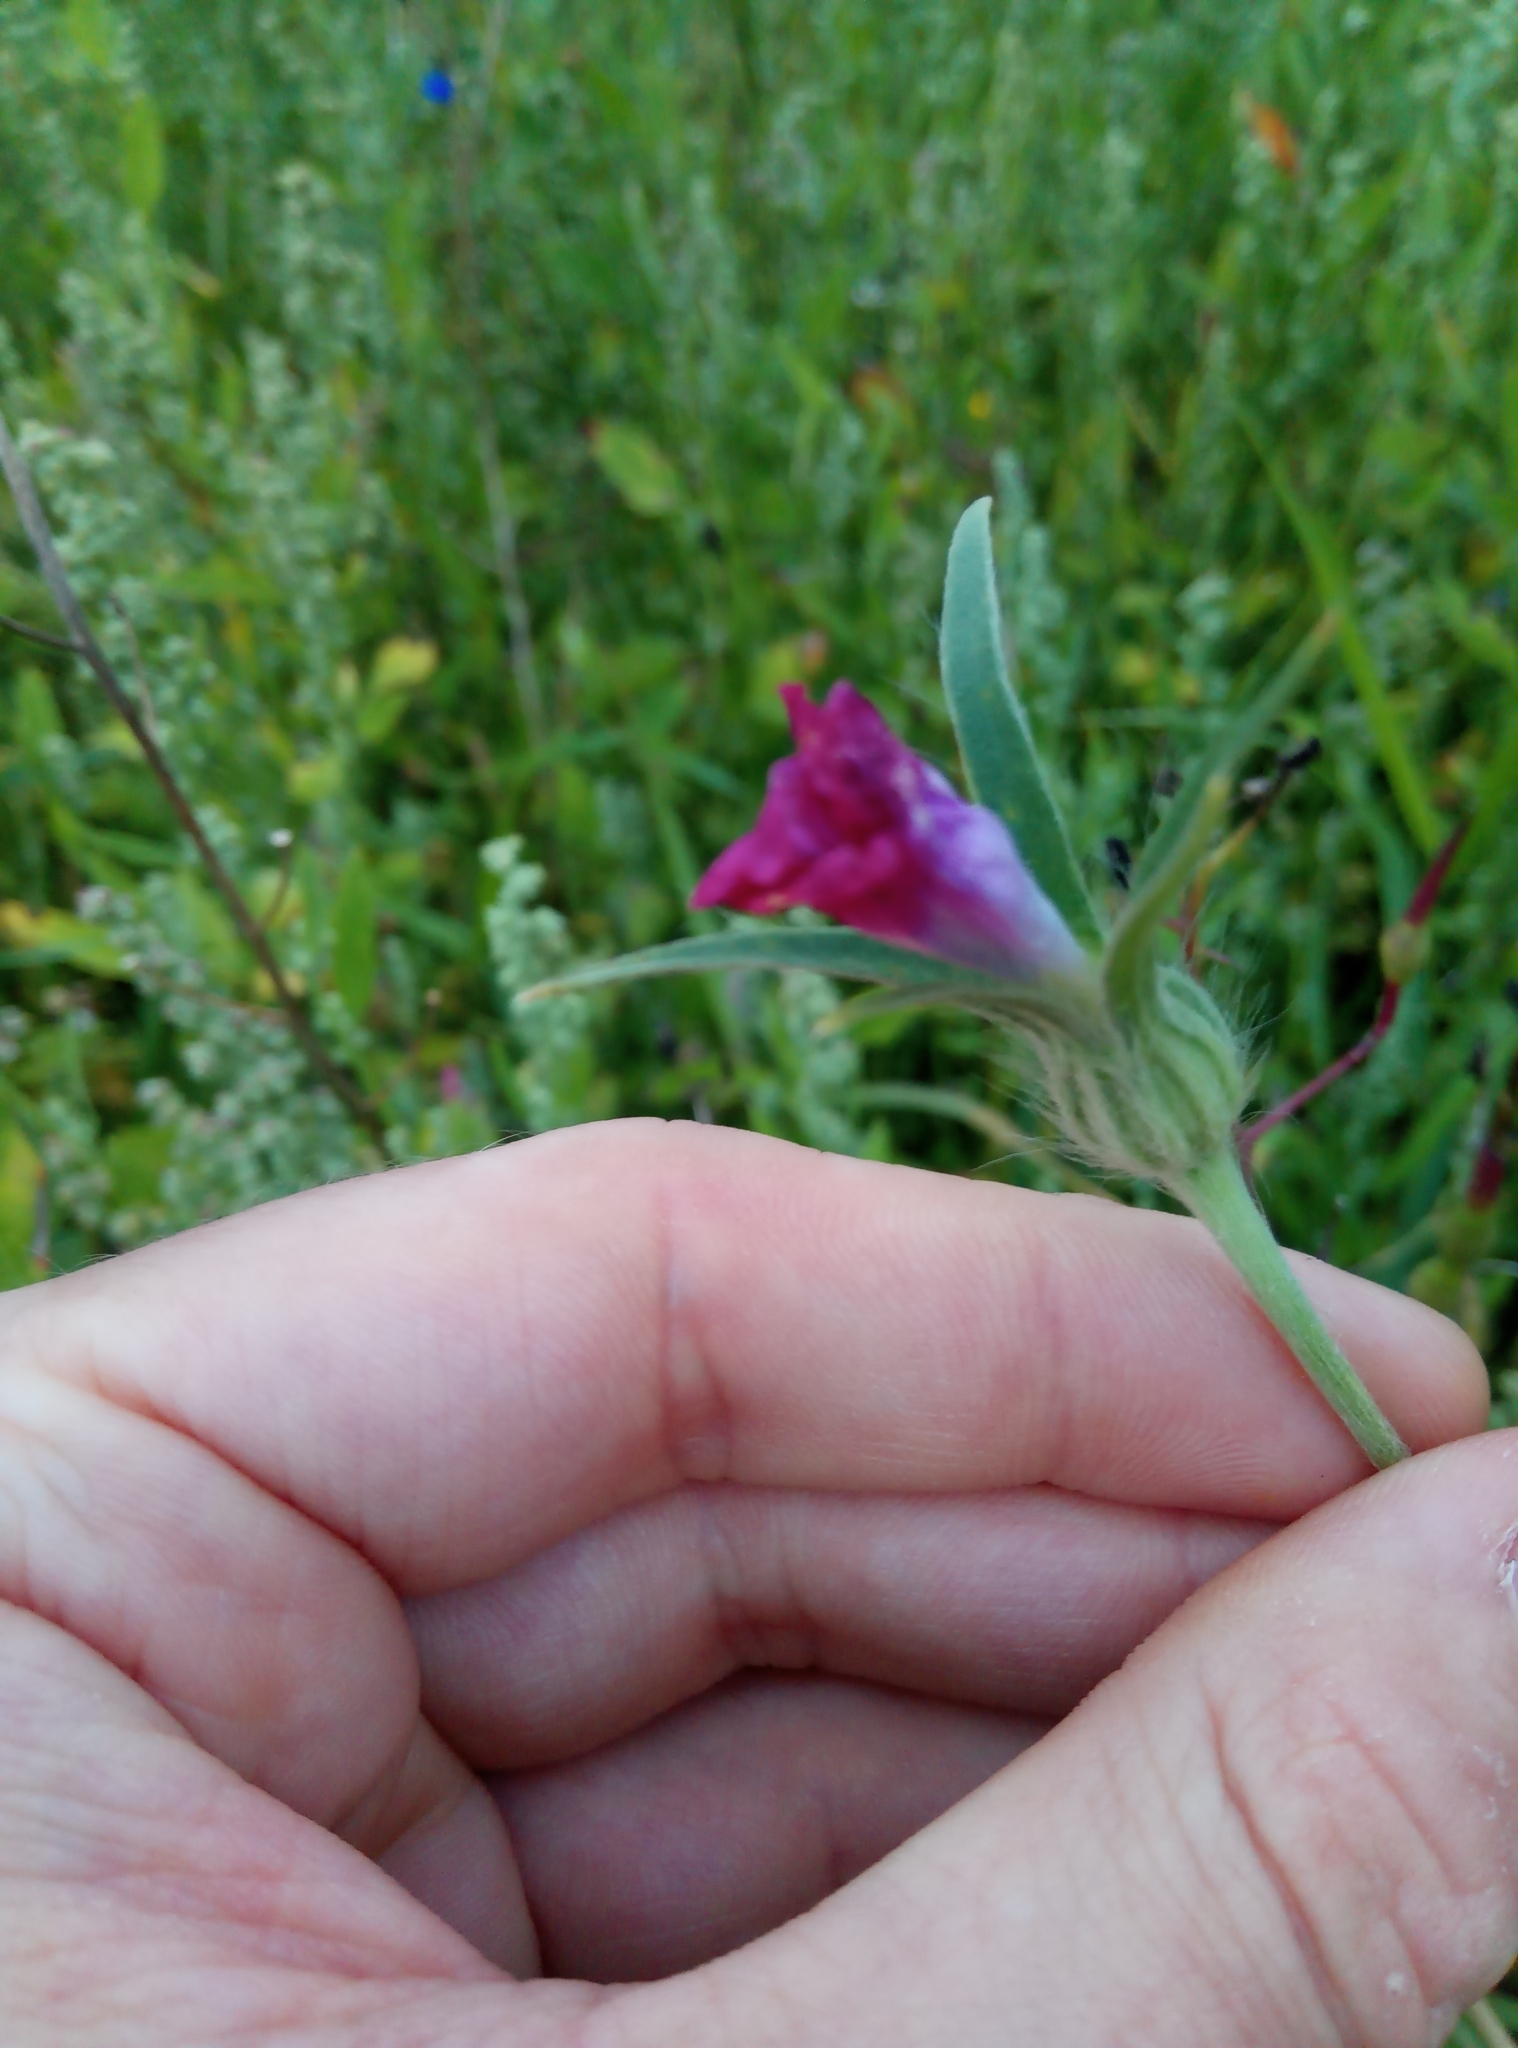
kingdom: Plantae
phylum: Tracheophyta
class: Magnoliopsida
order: Caryophyllales
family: Caryophyllaceae
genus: Agrostemma
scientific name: Agrostemma githago
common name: Common corncockle
